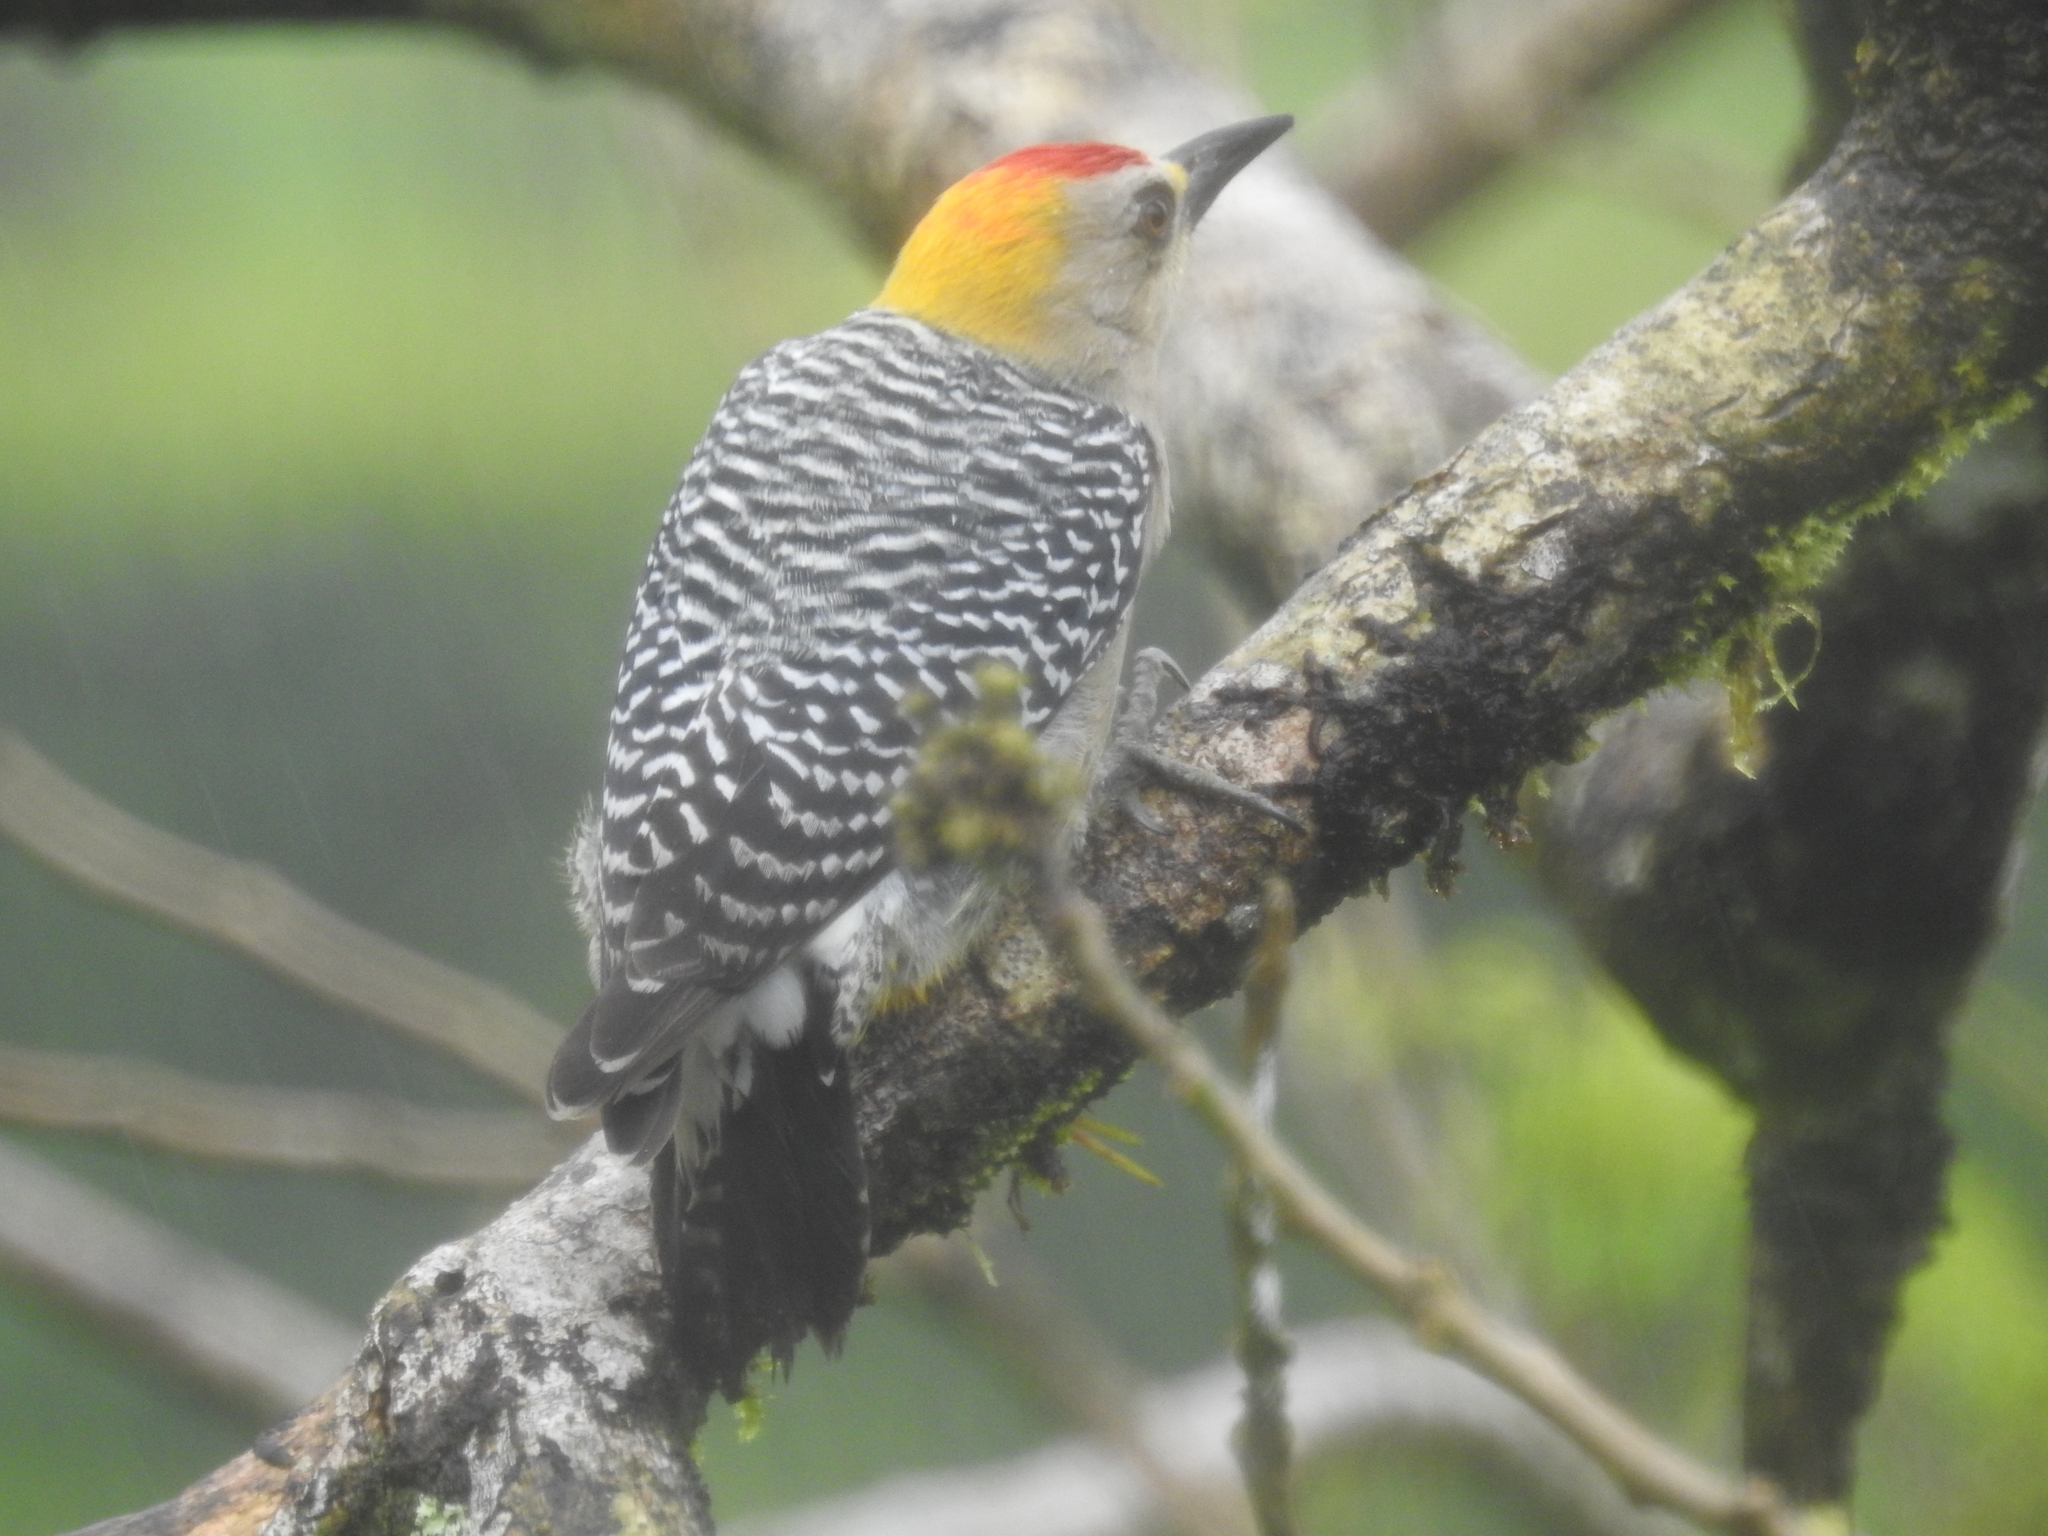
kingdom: Animalia
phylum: Chordata
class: Aves
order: Piciformes
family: Picidae
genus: Melanerpes
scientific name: Melanerpes hoffmannii
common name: Hoffmann's woodpecker
